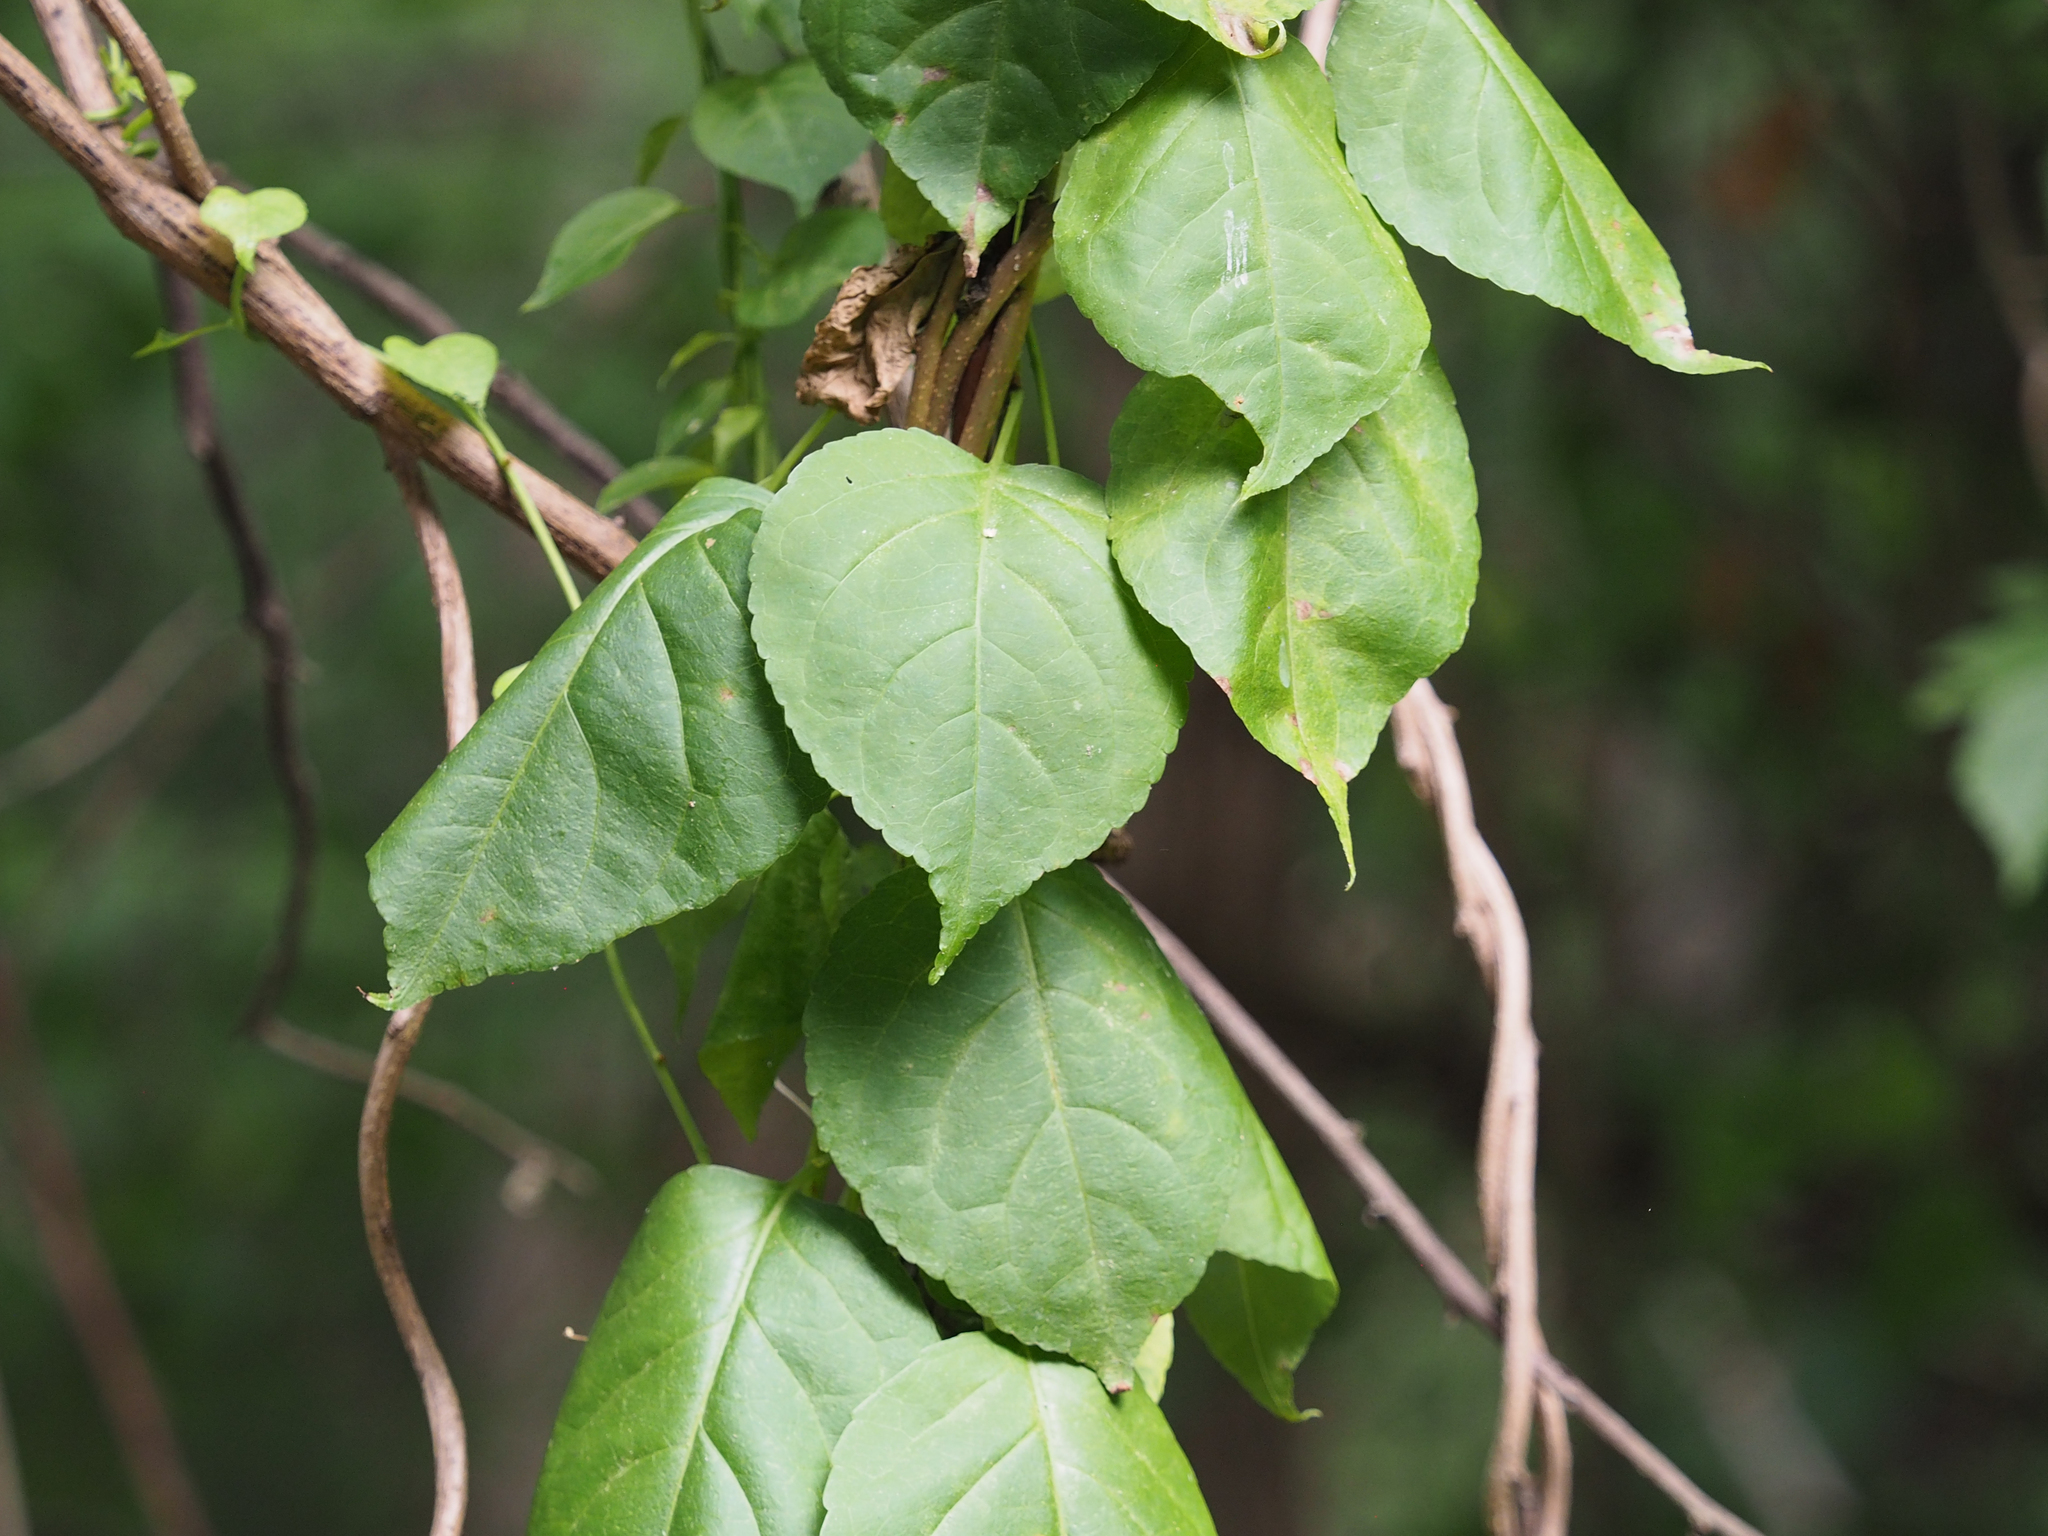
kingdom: Plantae
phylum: Tracheophyta
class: Magnoliopsida
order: Celastrales
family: Celastraceae
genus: Celastrus
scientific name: Celastrus orbiculatus
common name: Oriental bittersweet
